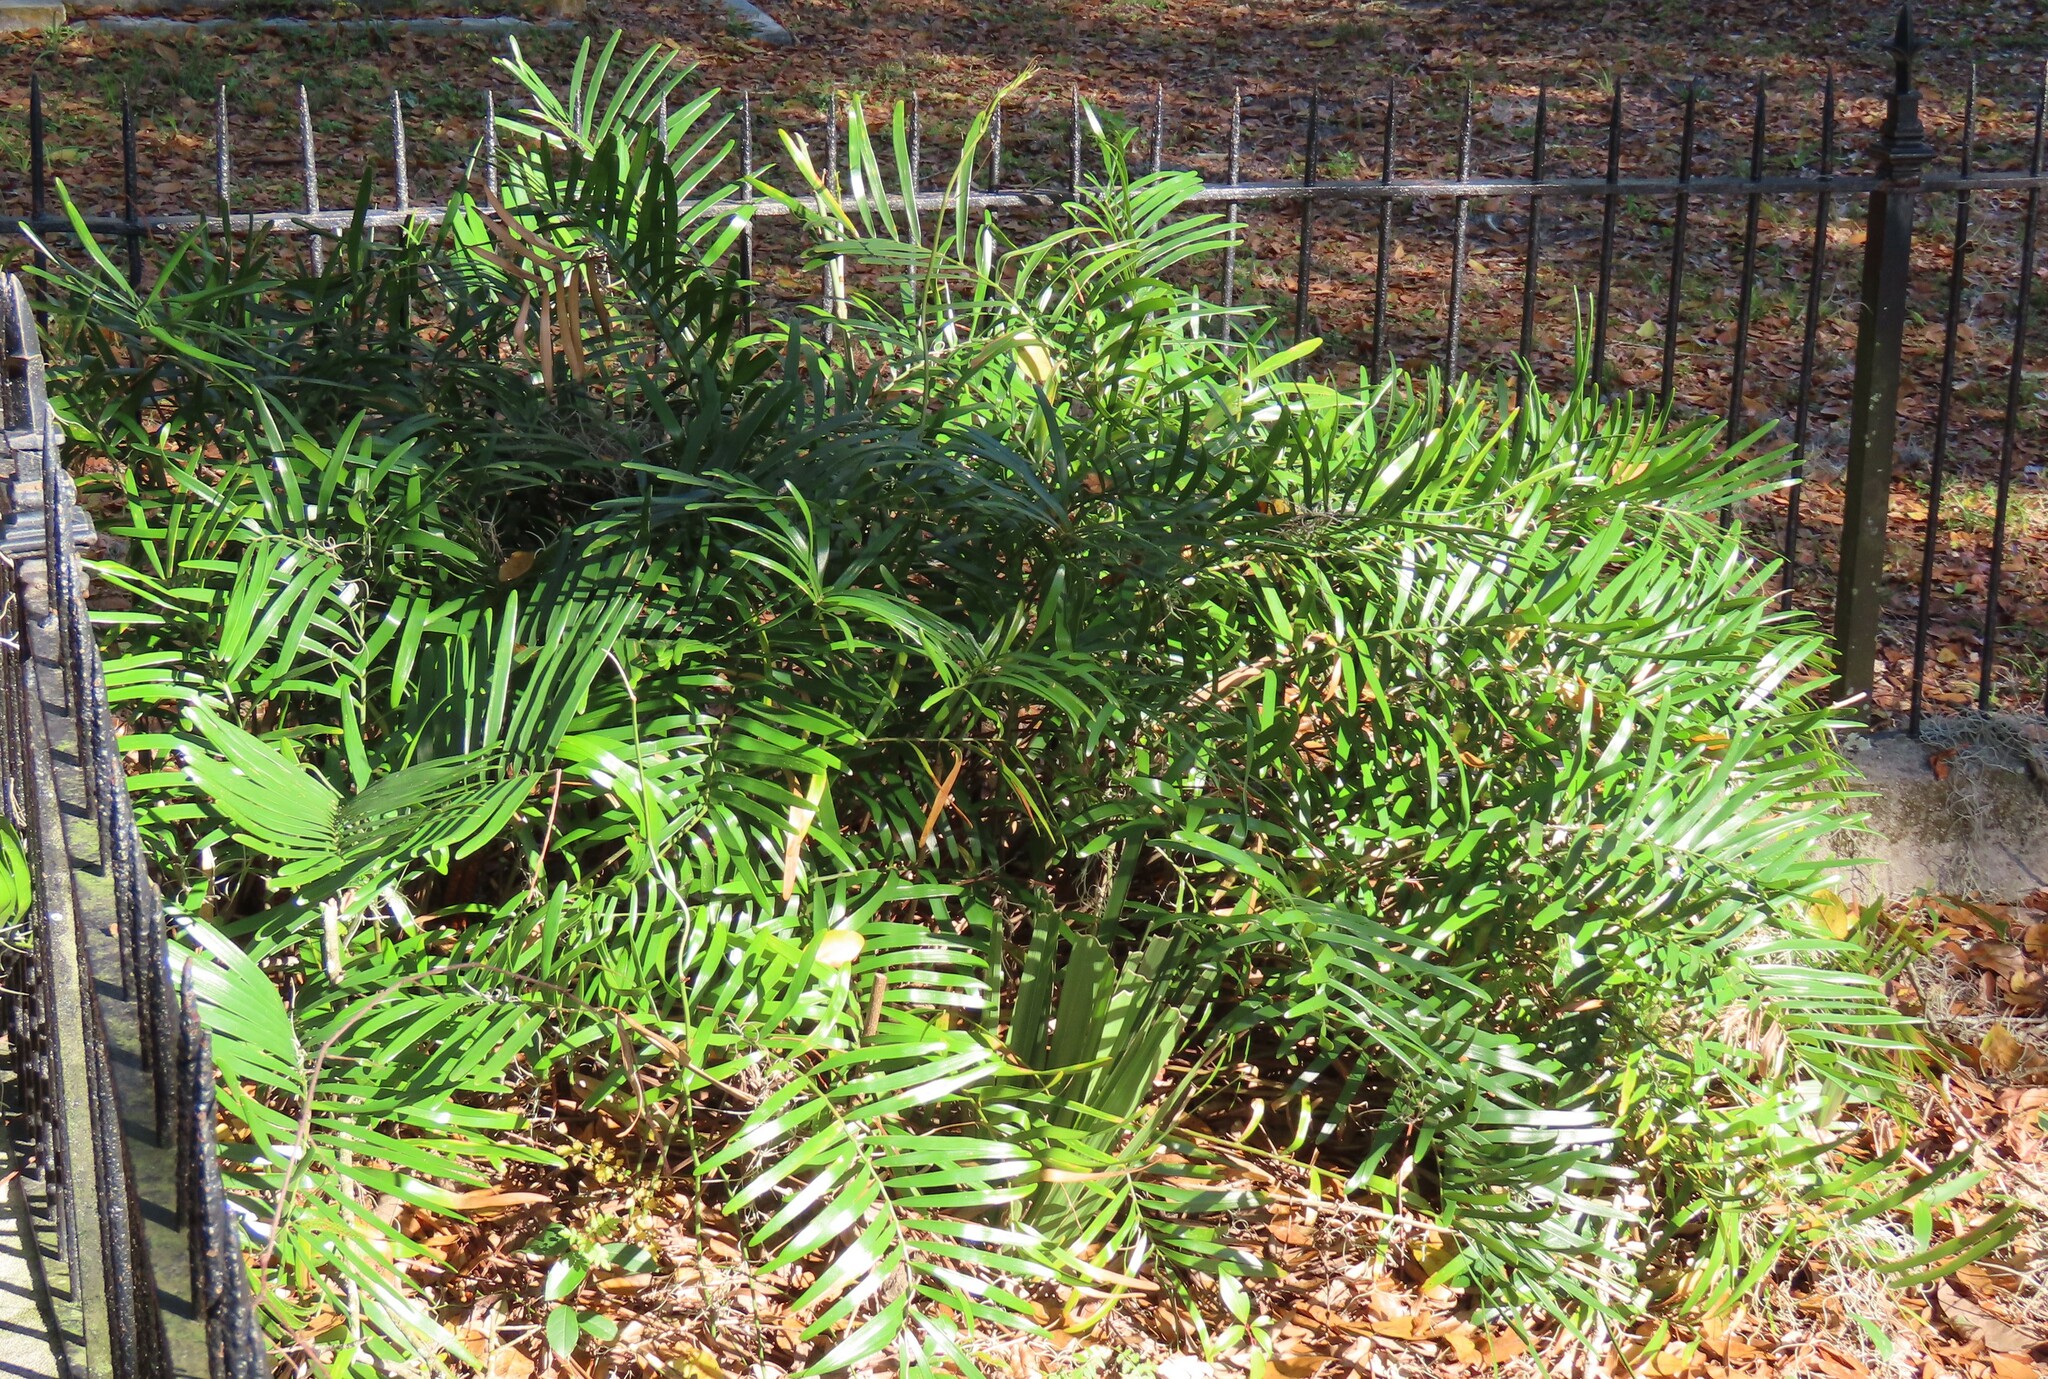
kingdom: Plantae
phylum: Tracheophyta
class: Cycadopsida
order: Cycadales
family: Zamiaceae
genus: Zamia
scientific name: Zamia integrifolia
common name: Florida arrowroot
